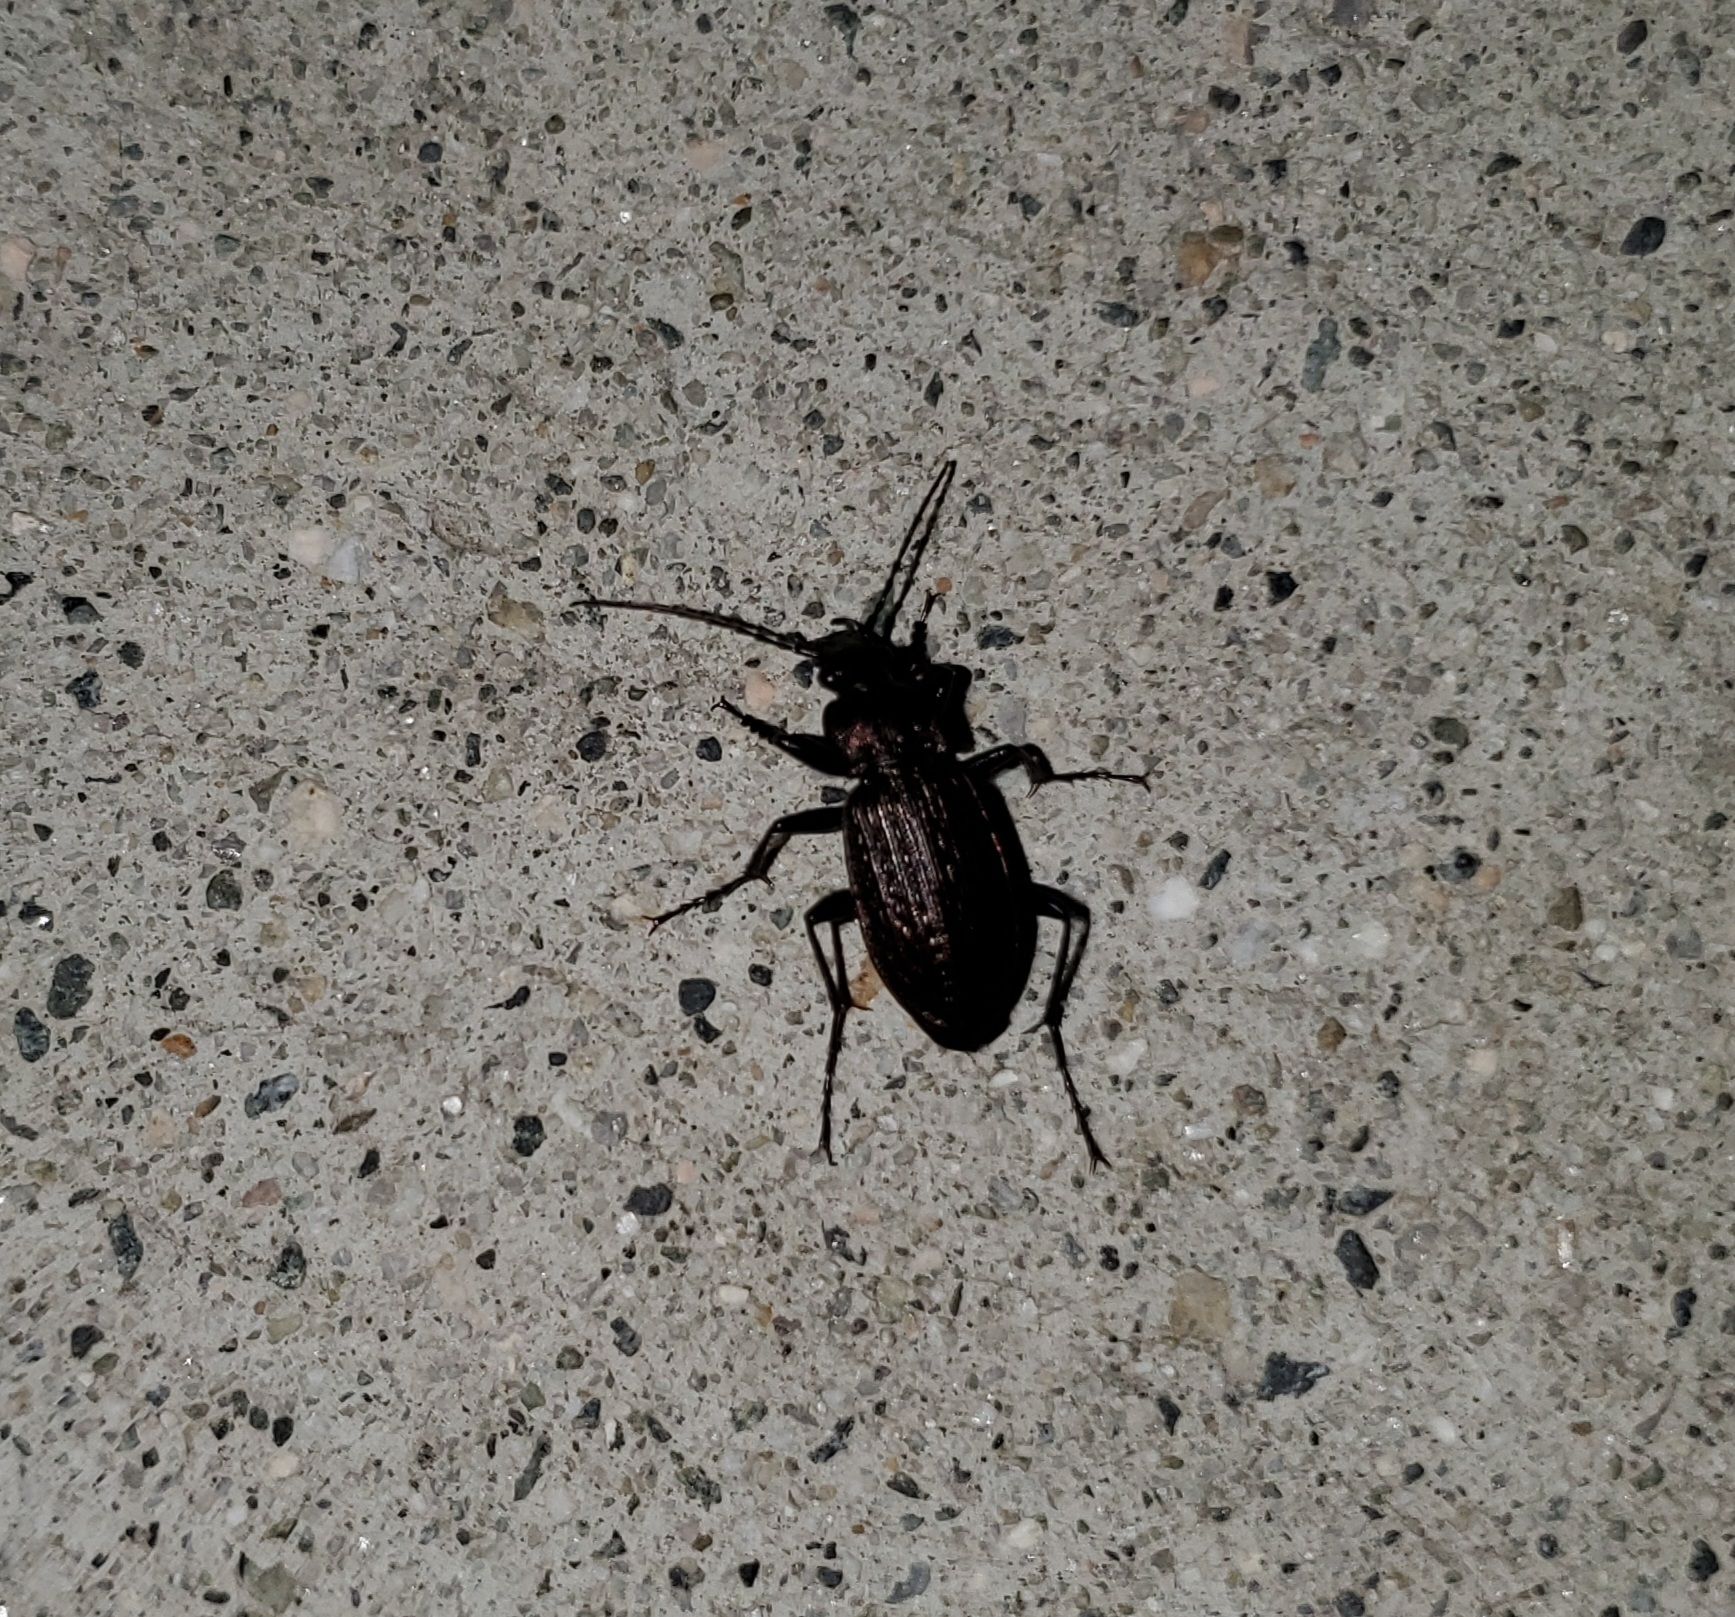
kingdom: Animalia
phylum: Arthropoda
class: Insecta
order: Coleoptera
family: Carabidae
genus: Carabus
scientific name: Carabus granulatus
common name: Granulate ground beetle
